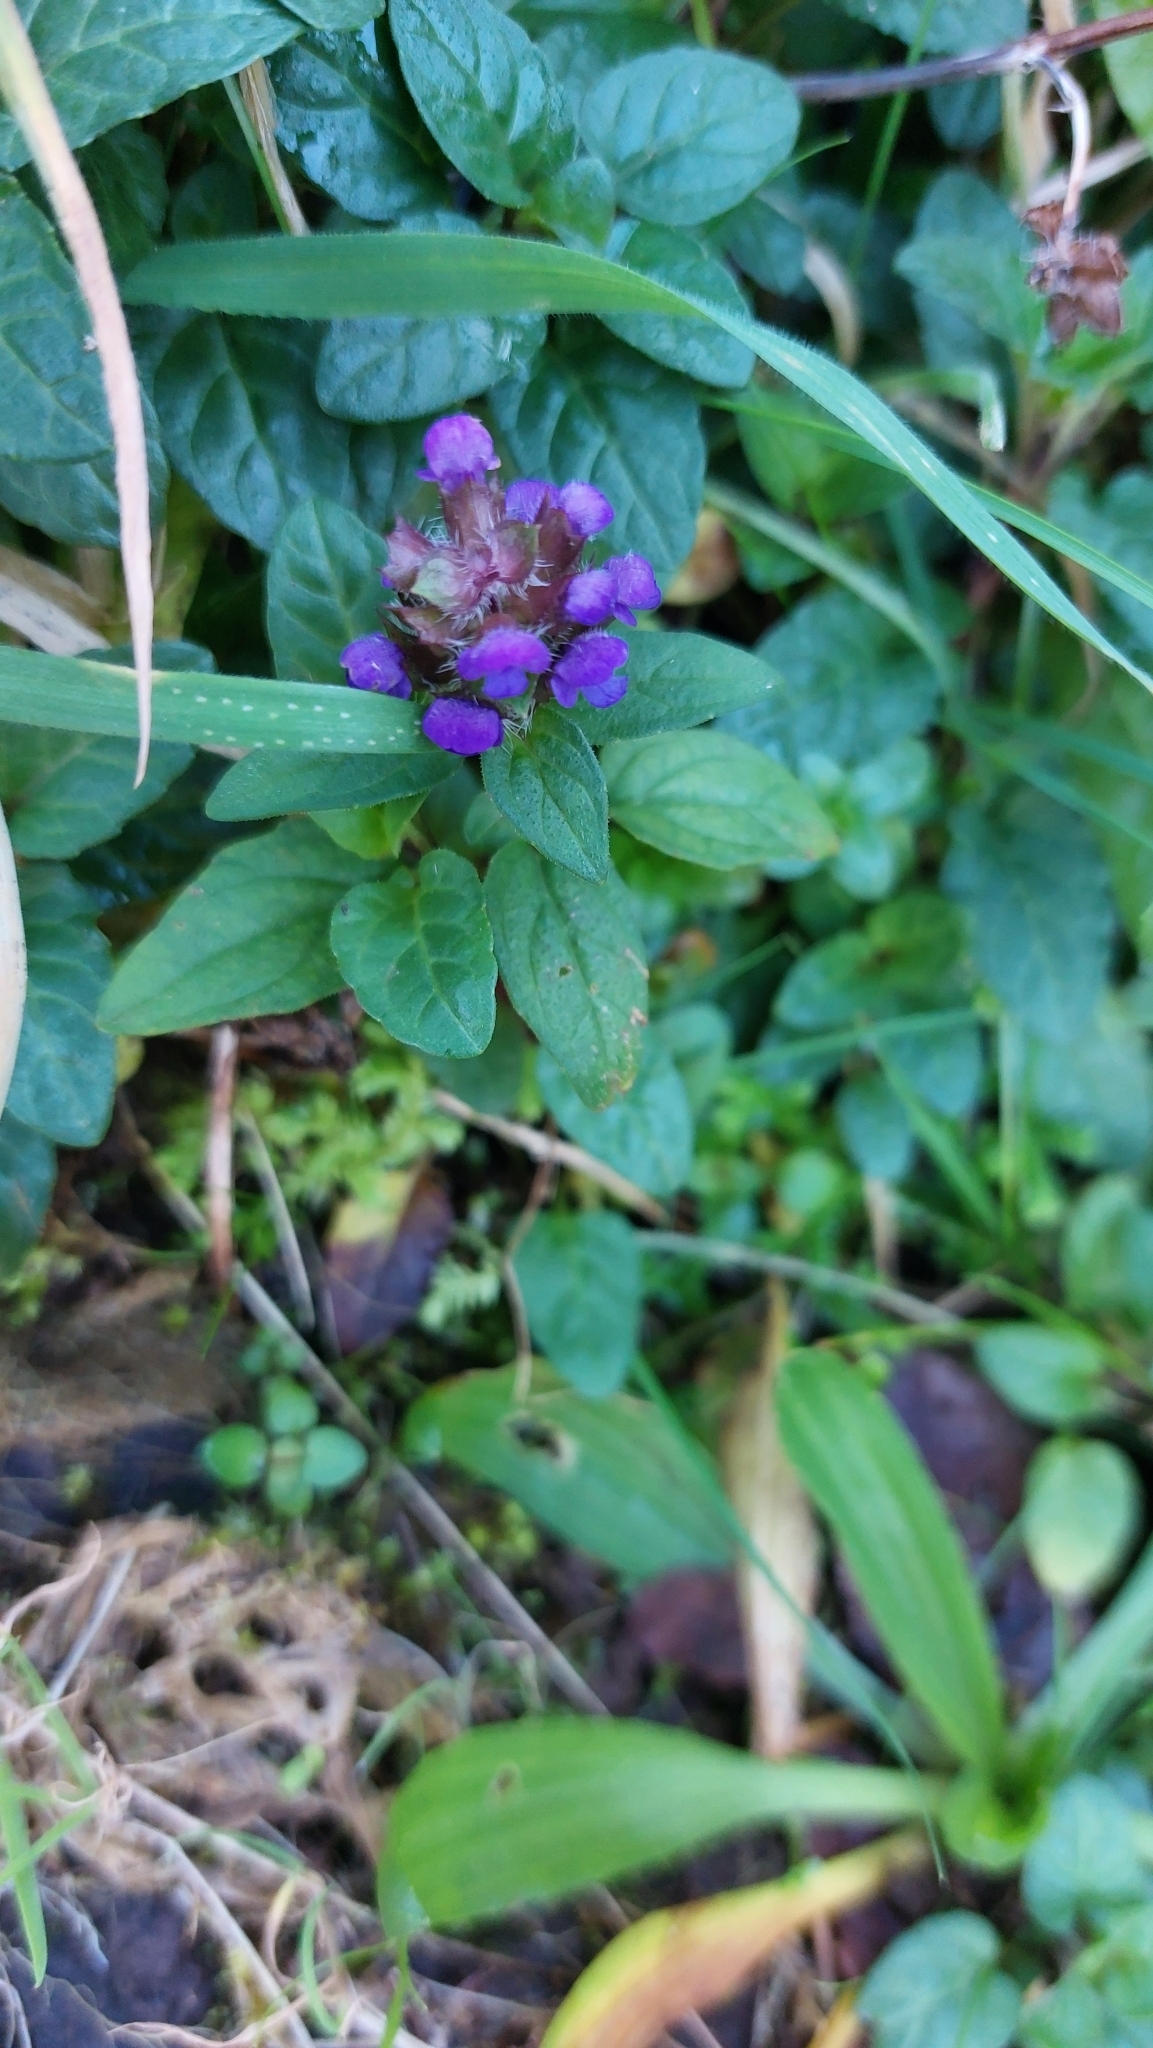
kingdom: Plantae
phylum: Tracheophyta
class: Magnoliopsida
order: Lamiales
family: Lamiaceae
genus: Prunella
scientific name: Prunella vulgaris
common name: Heal-all
